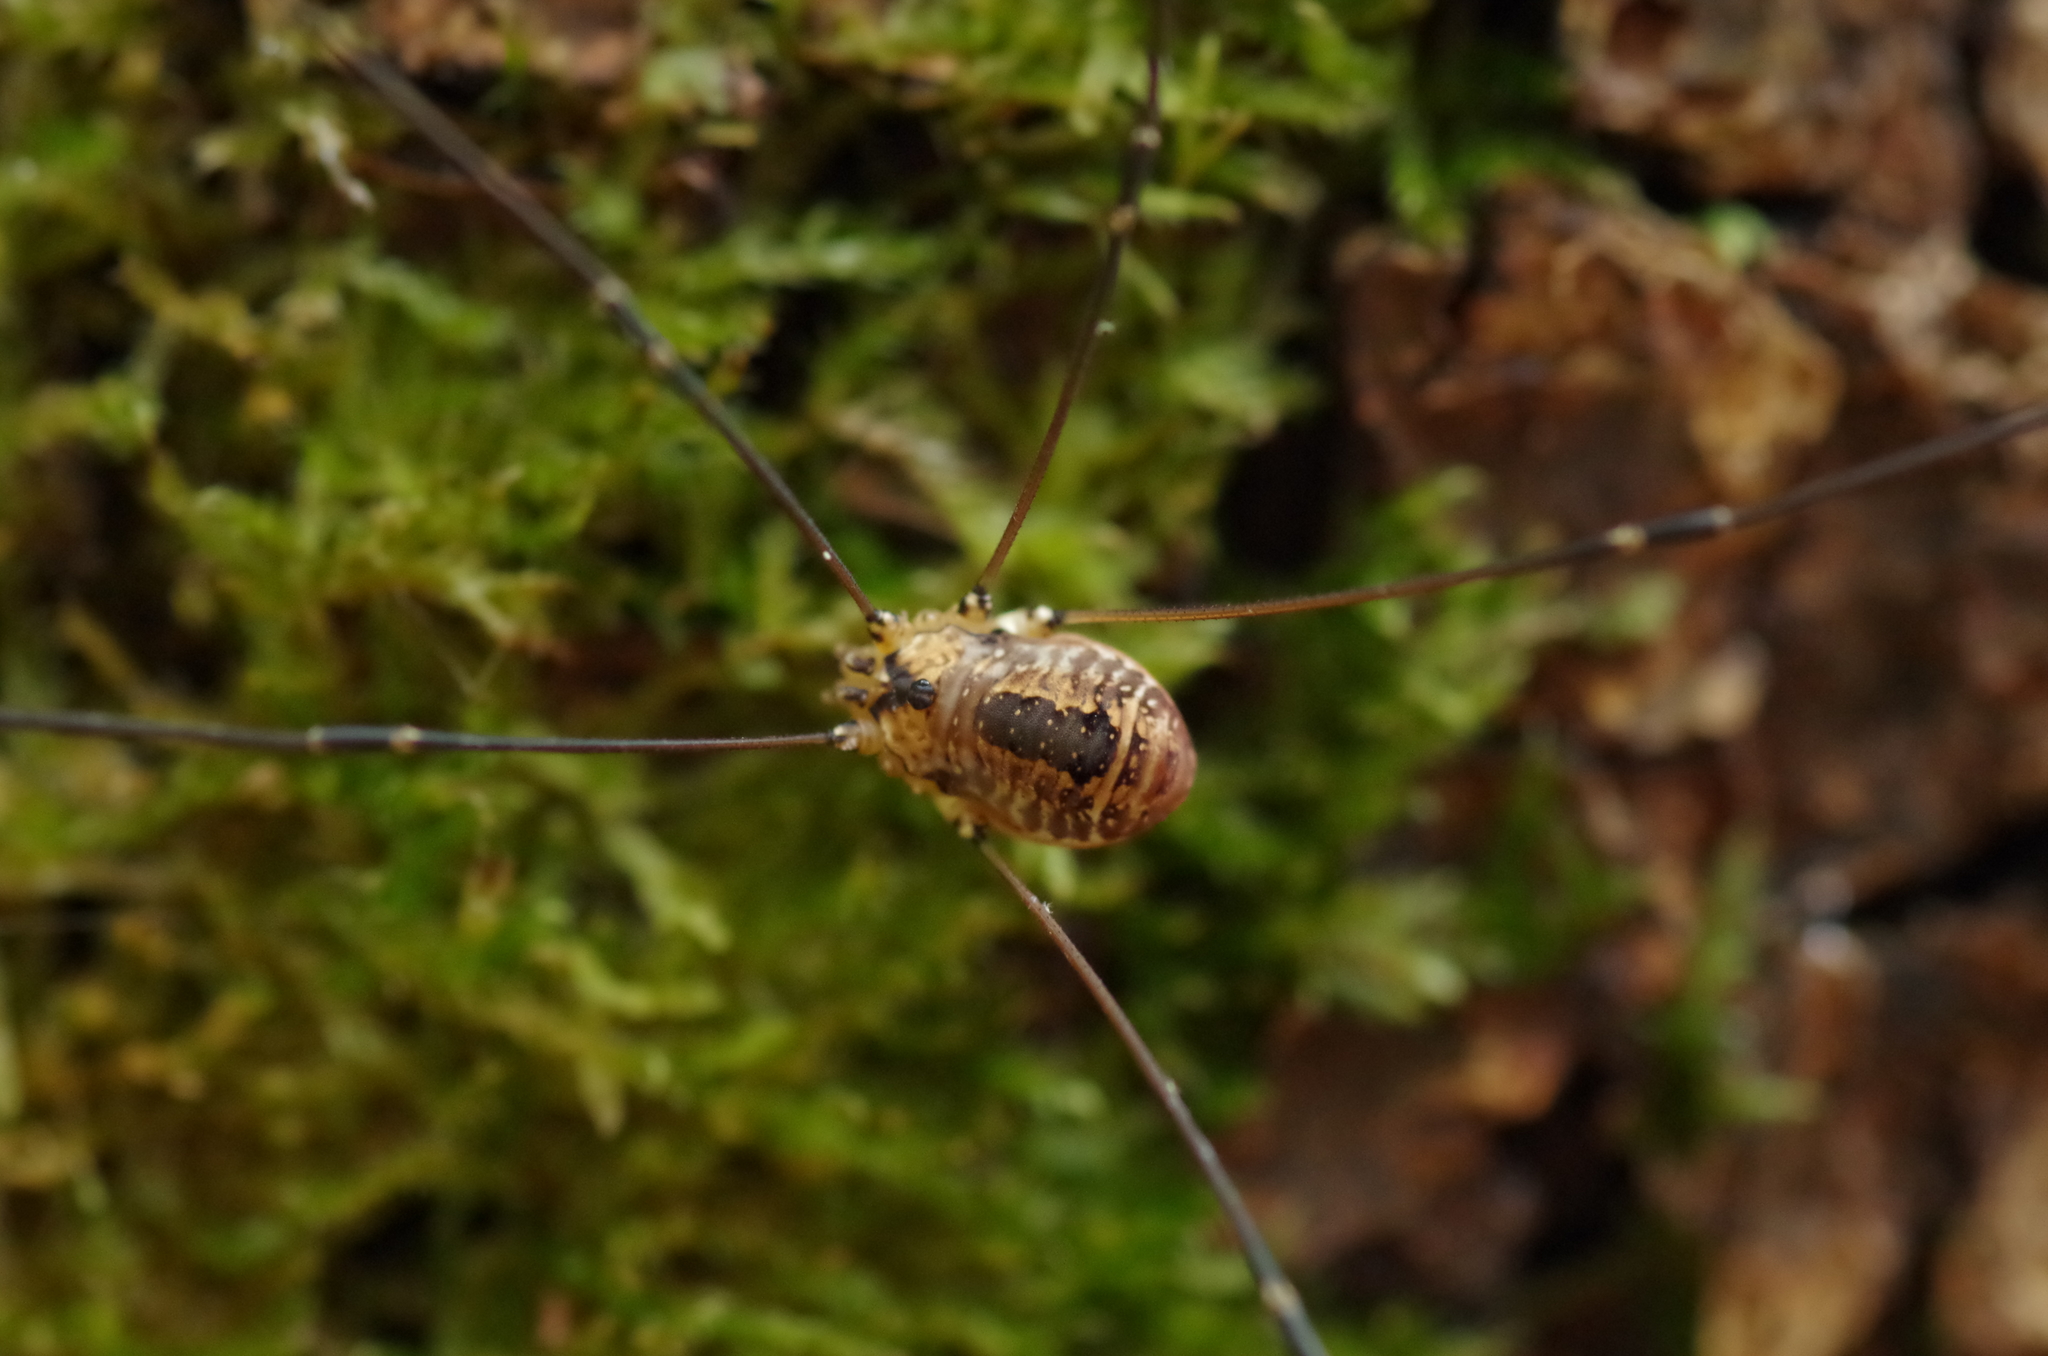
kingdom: Animalia
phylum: Arthropoda
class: Arachnida
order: Opiliones
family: Sclerosomatidae
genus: Leiobunum
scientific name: Leiobunum rotundum
